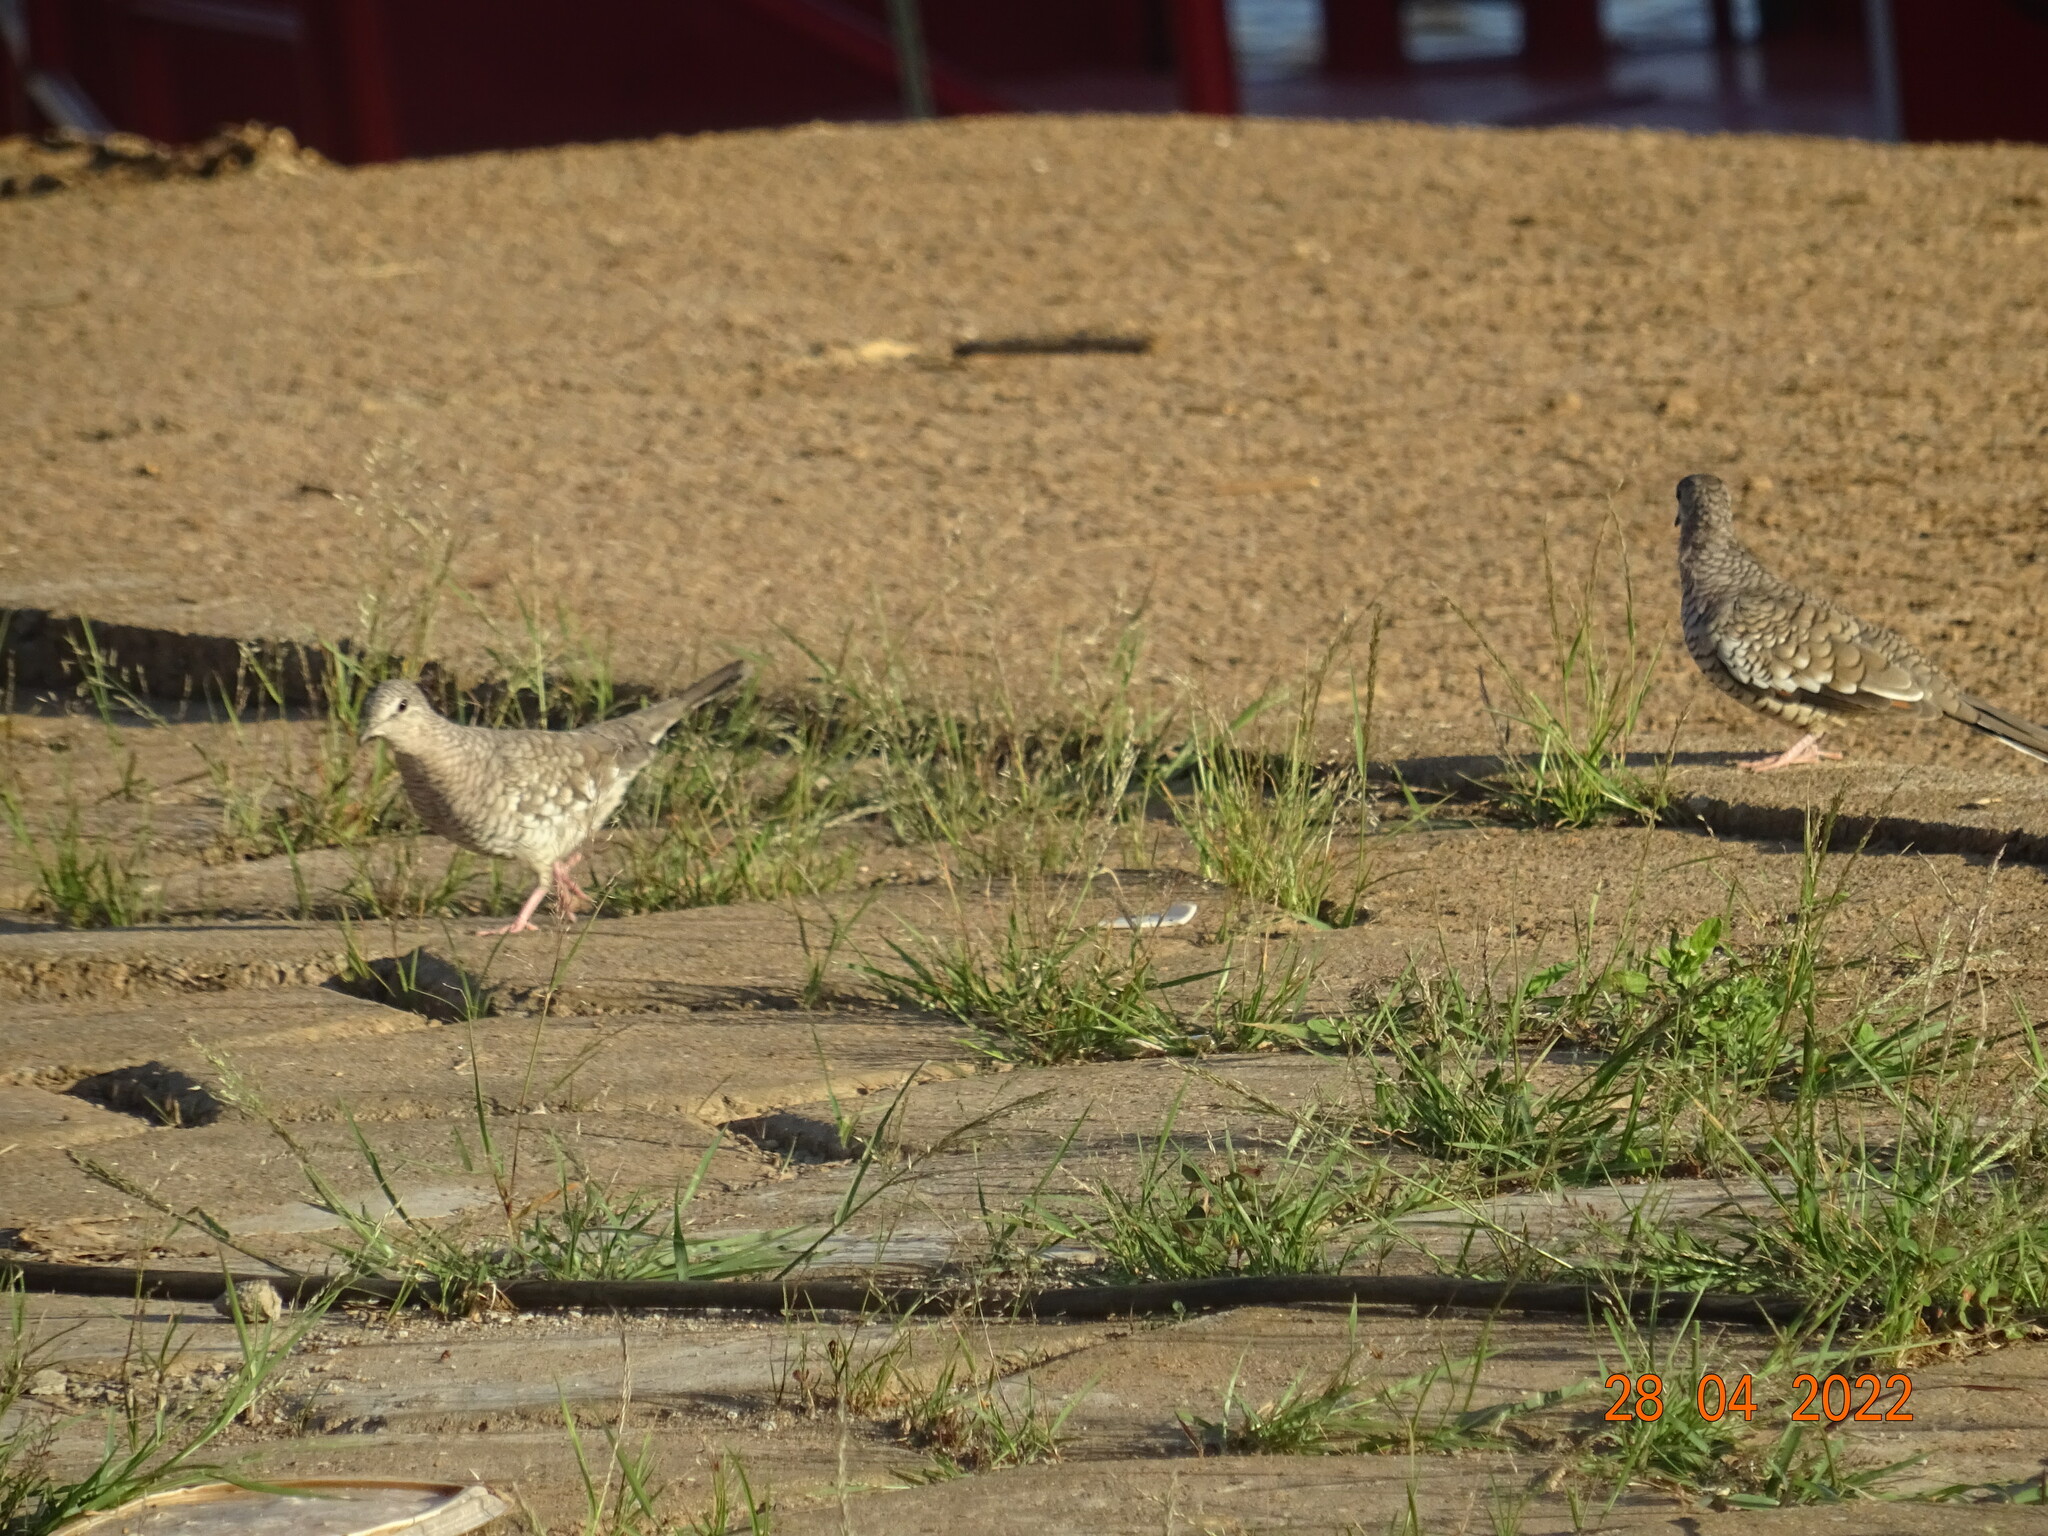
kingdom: Animalia
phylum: Chordata
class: Aves
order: Columbiformes
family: Columbidae
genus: Columbina
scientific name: Columbina squammata
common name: Scaled dove
